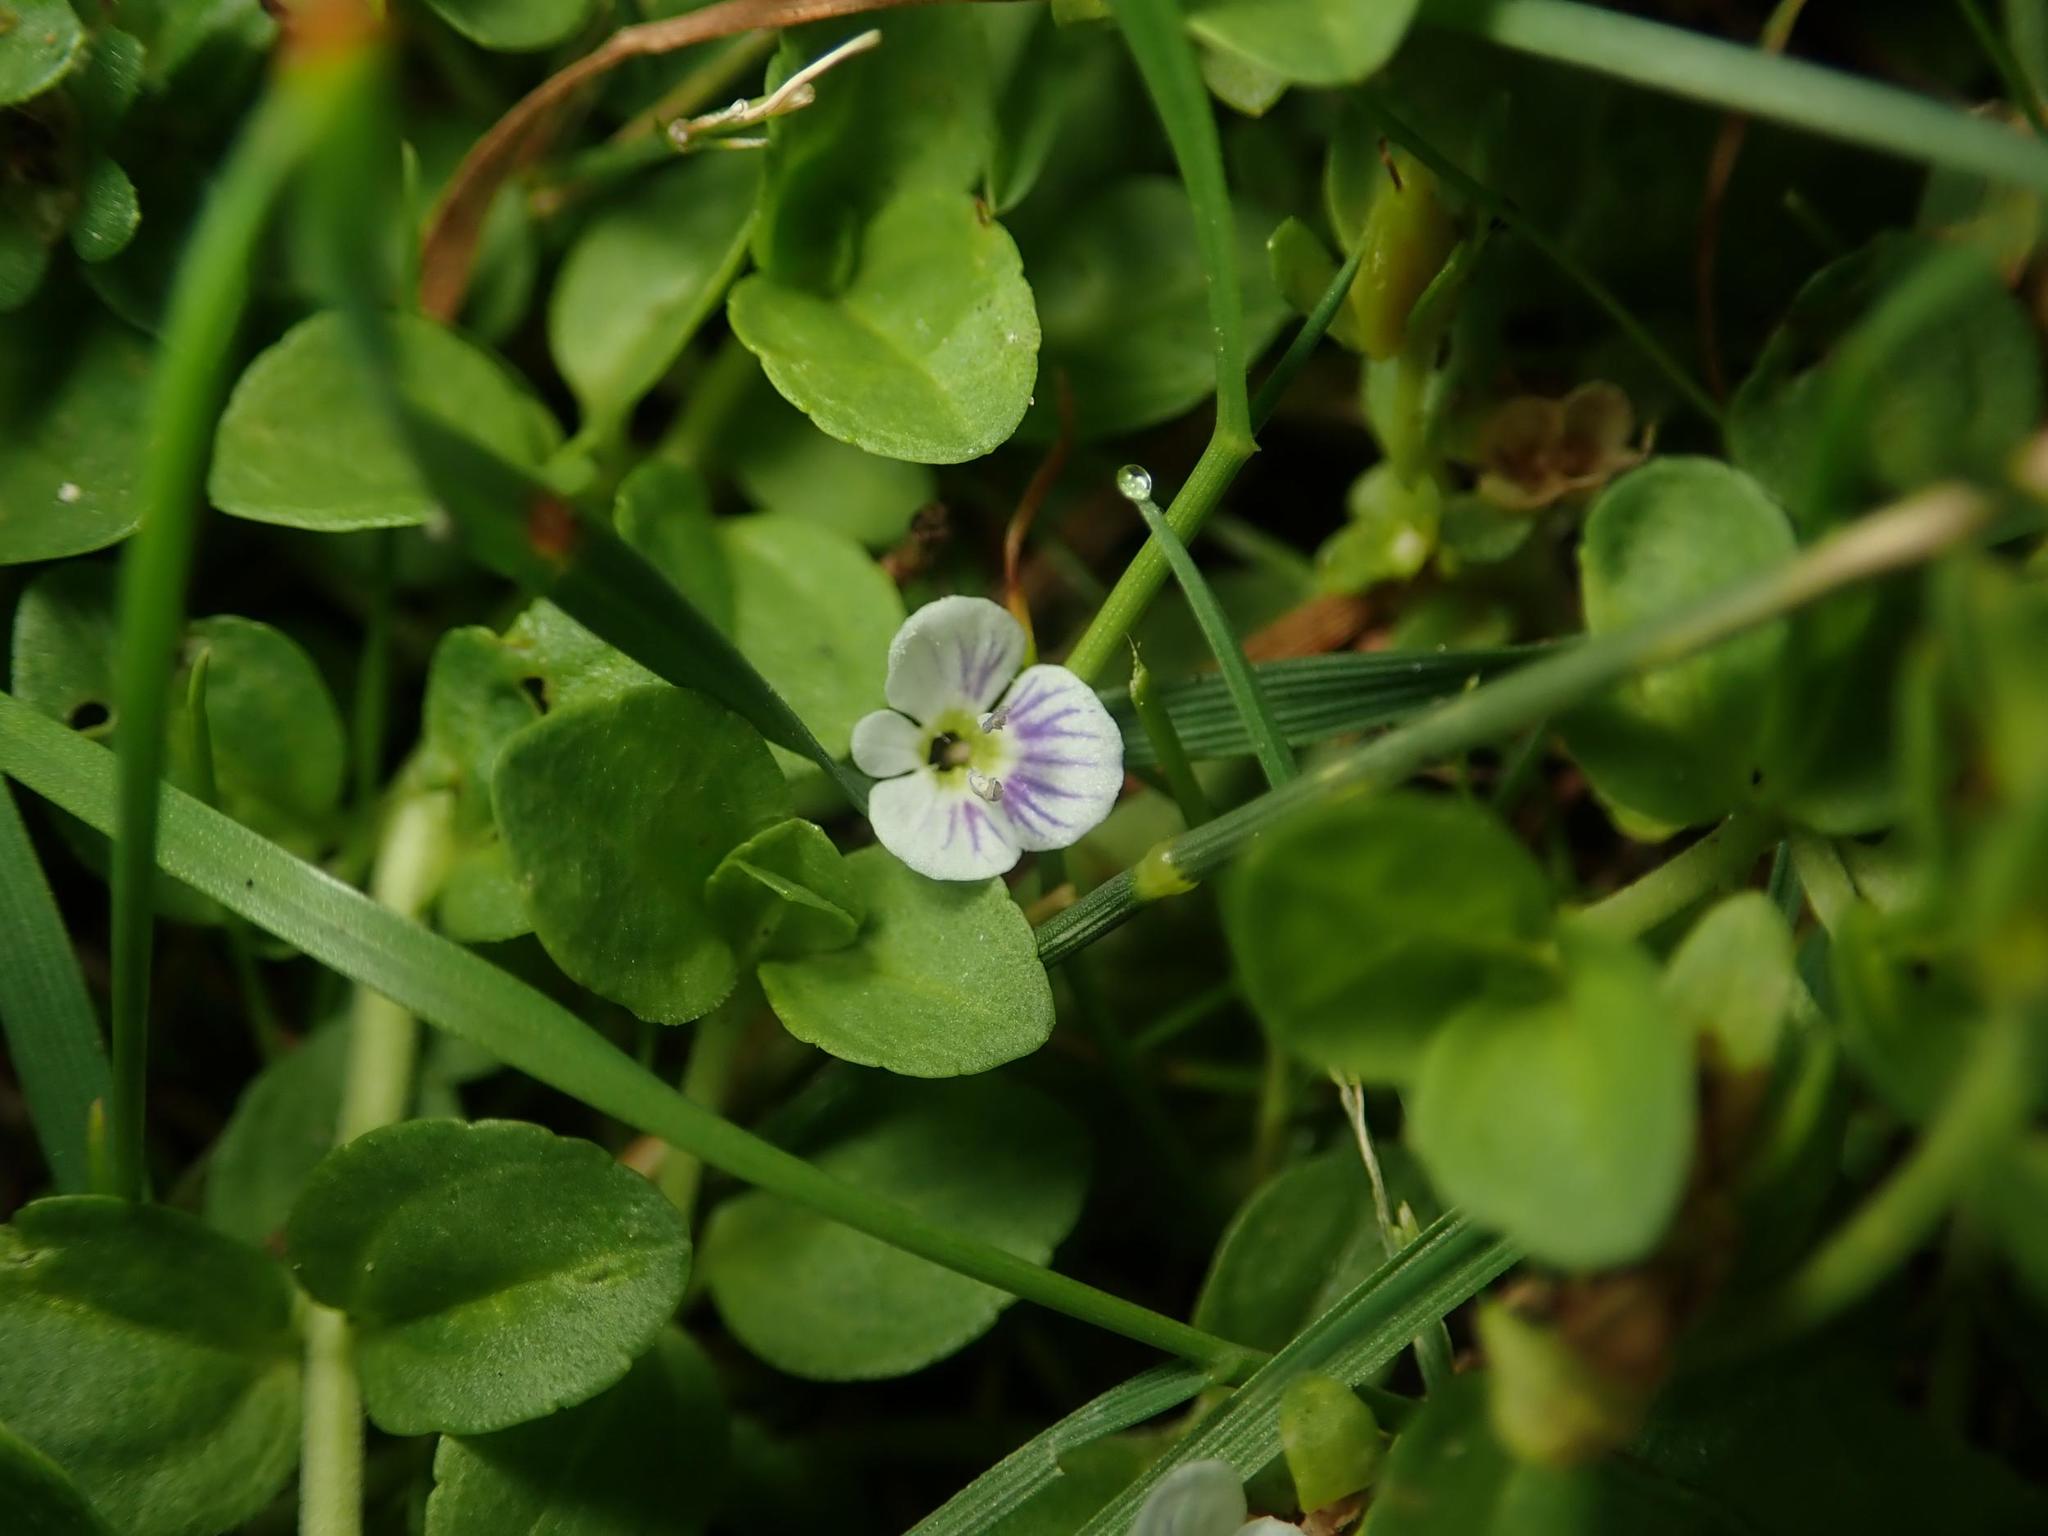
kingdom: Plantae
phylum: Tracheophyta
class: Magnoliopsida
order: Lamiales
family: Plantaginaceae
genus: Veronica
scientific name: Veronica serpyllifolia
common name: Thyme-leaved speedwell
